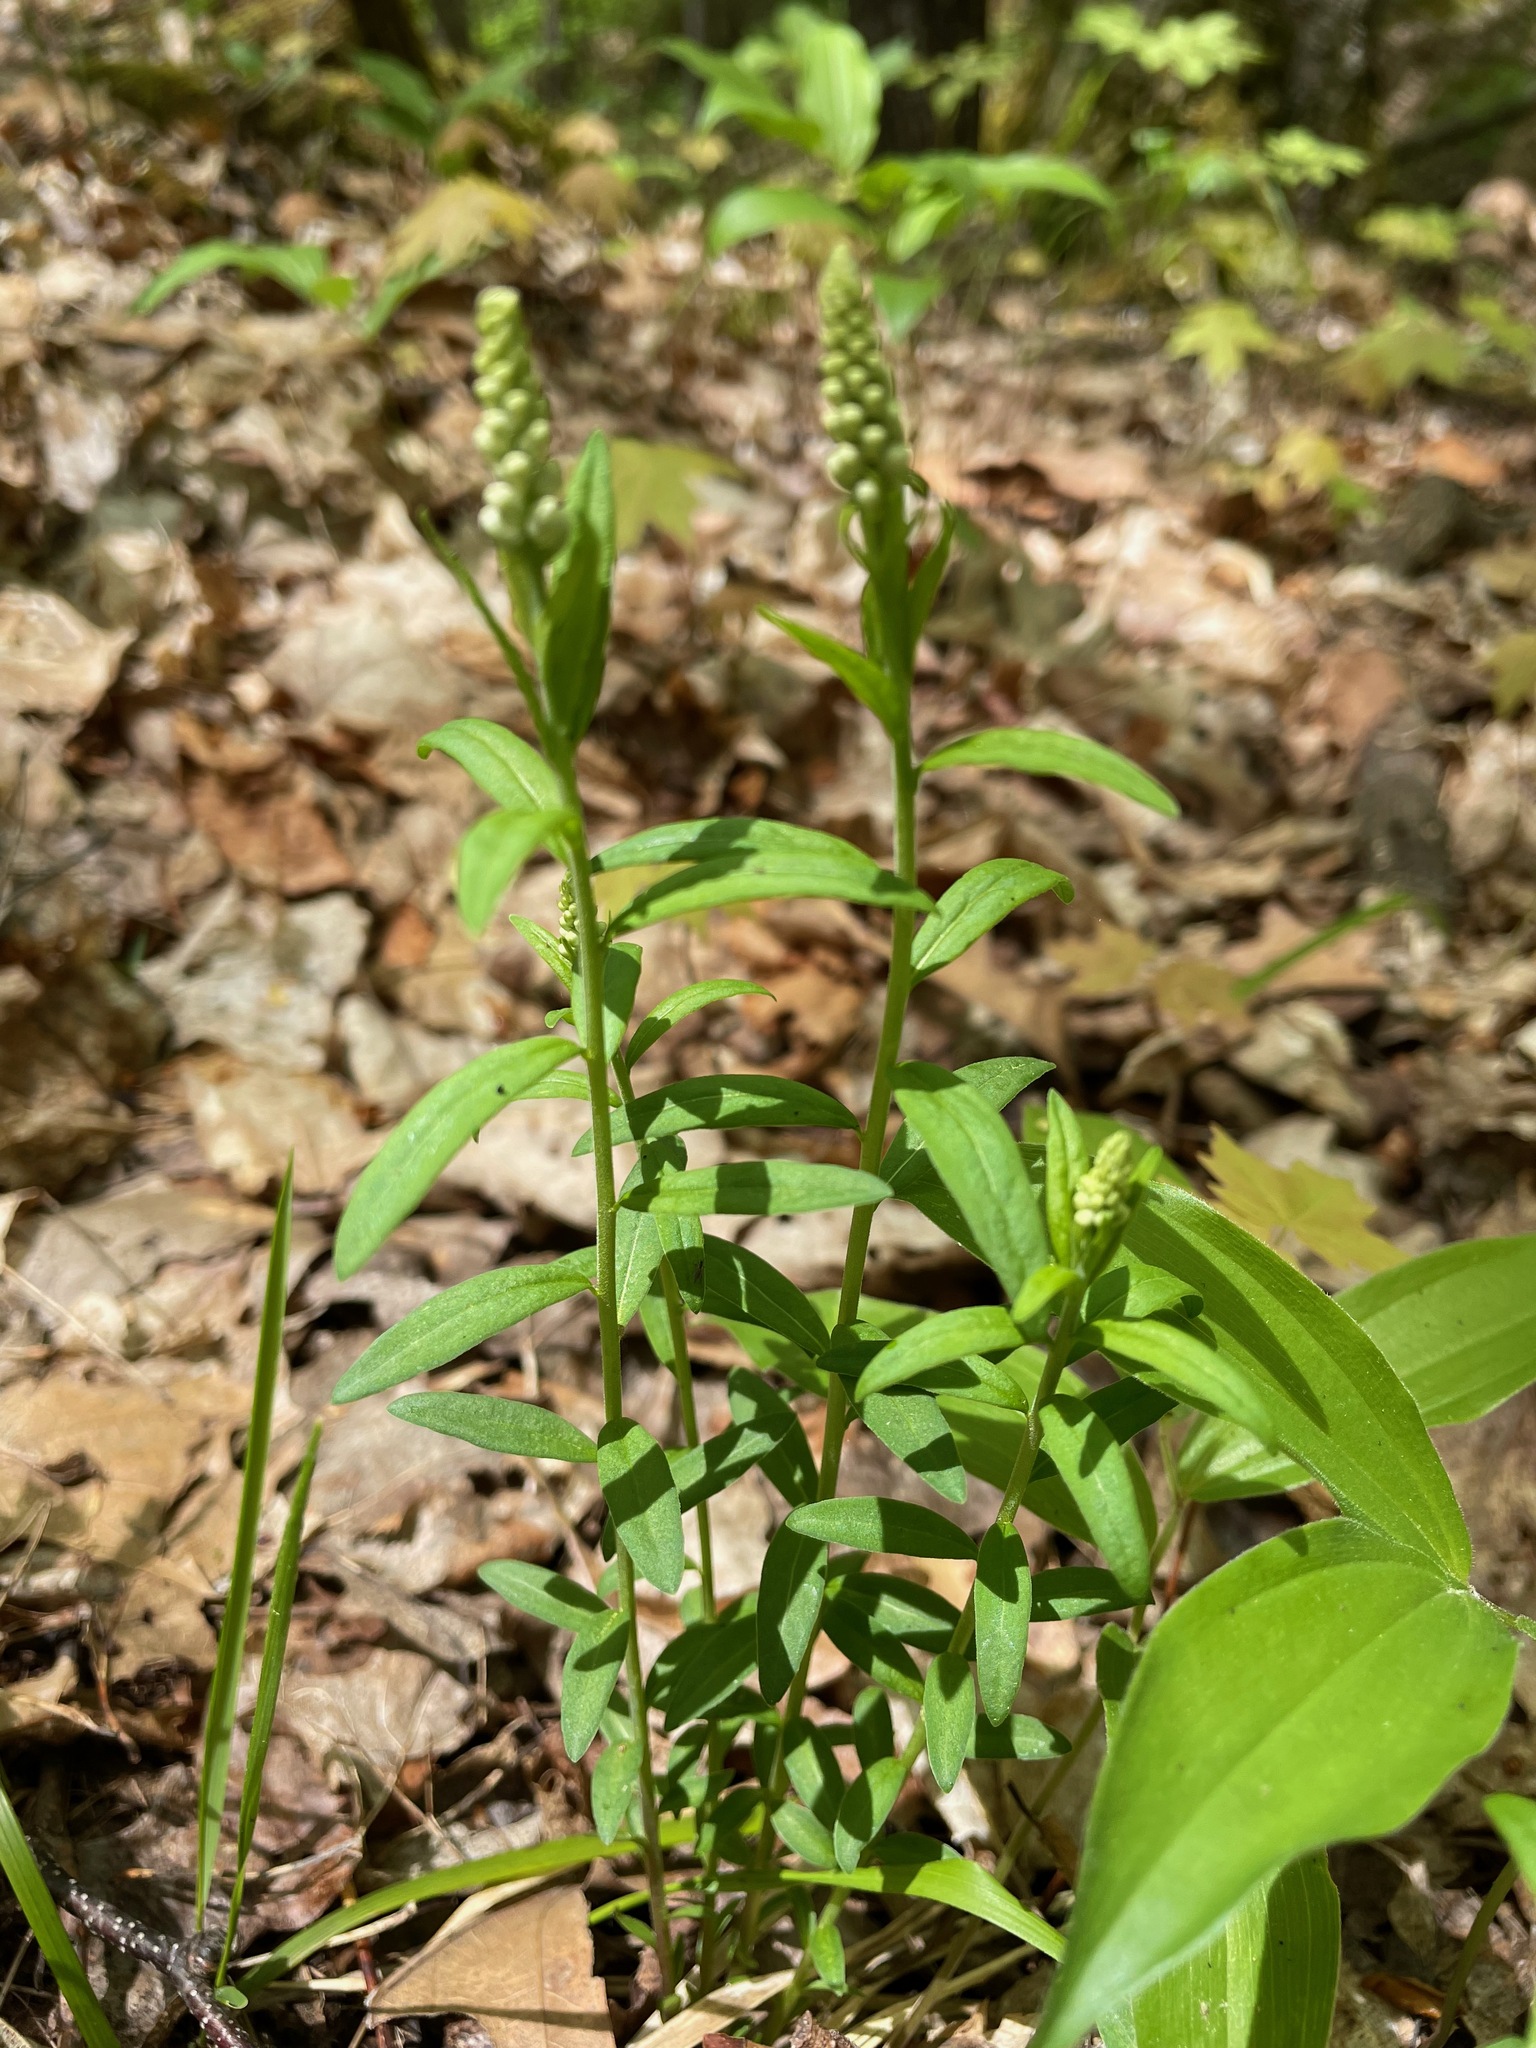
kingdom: Plantae
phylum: Tracheophyta
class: Magnoliopsida
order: Fabales
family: Polygalaceae
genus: Polygala
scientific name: Polygala senega
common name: Seneca snakeroot
